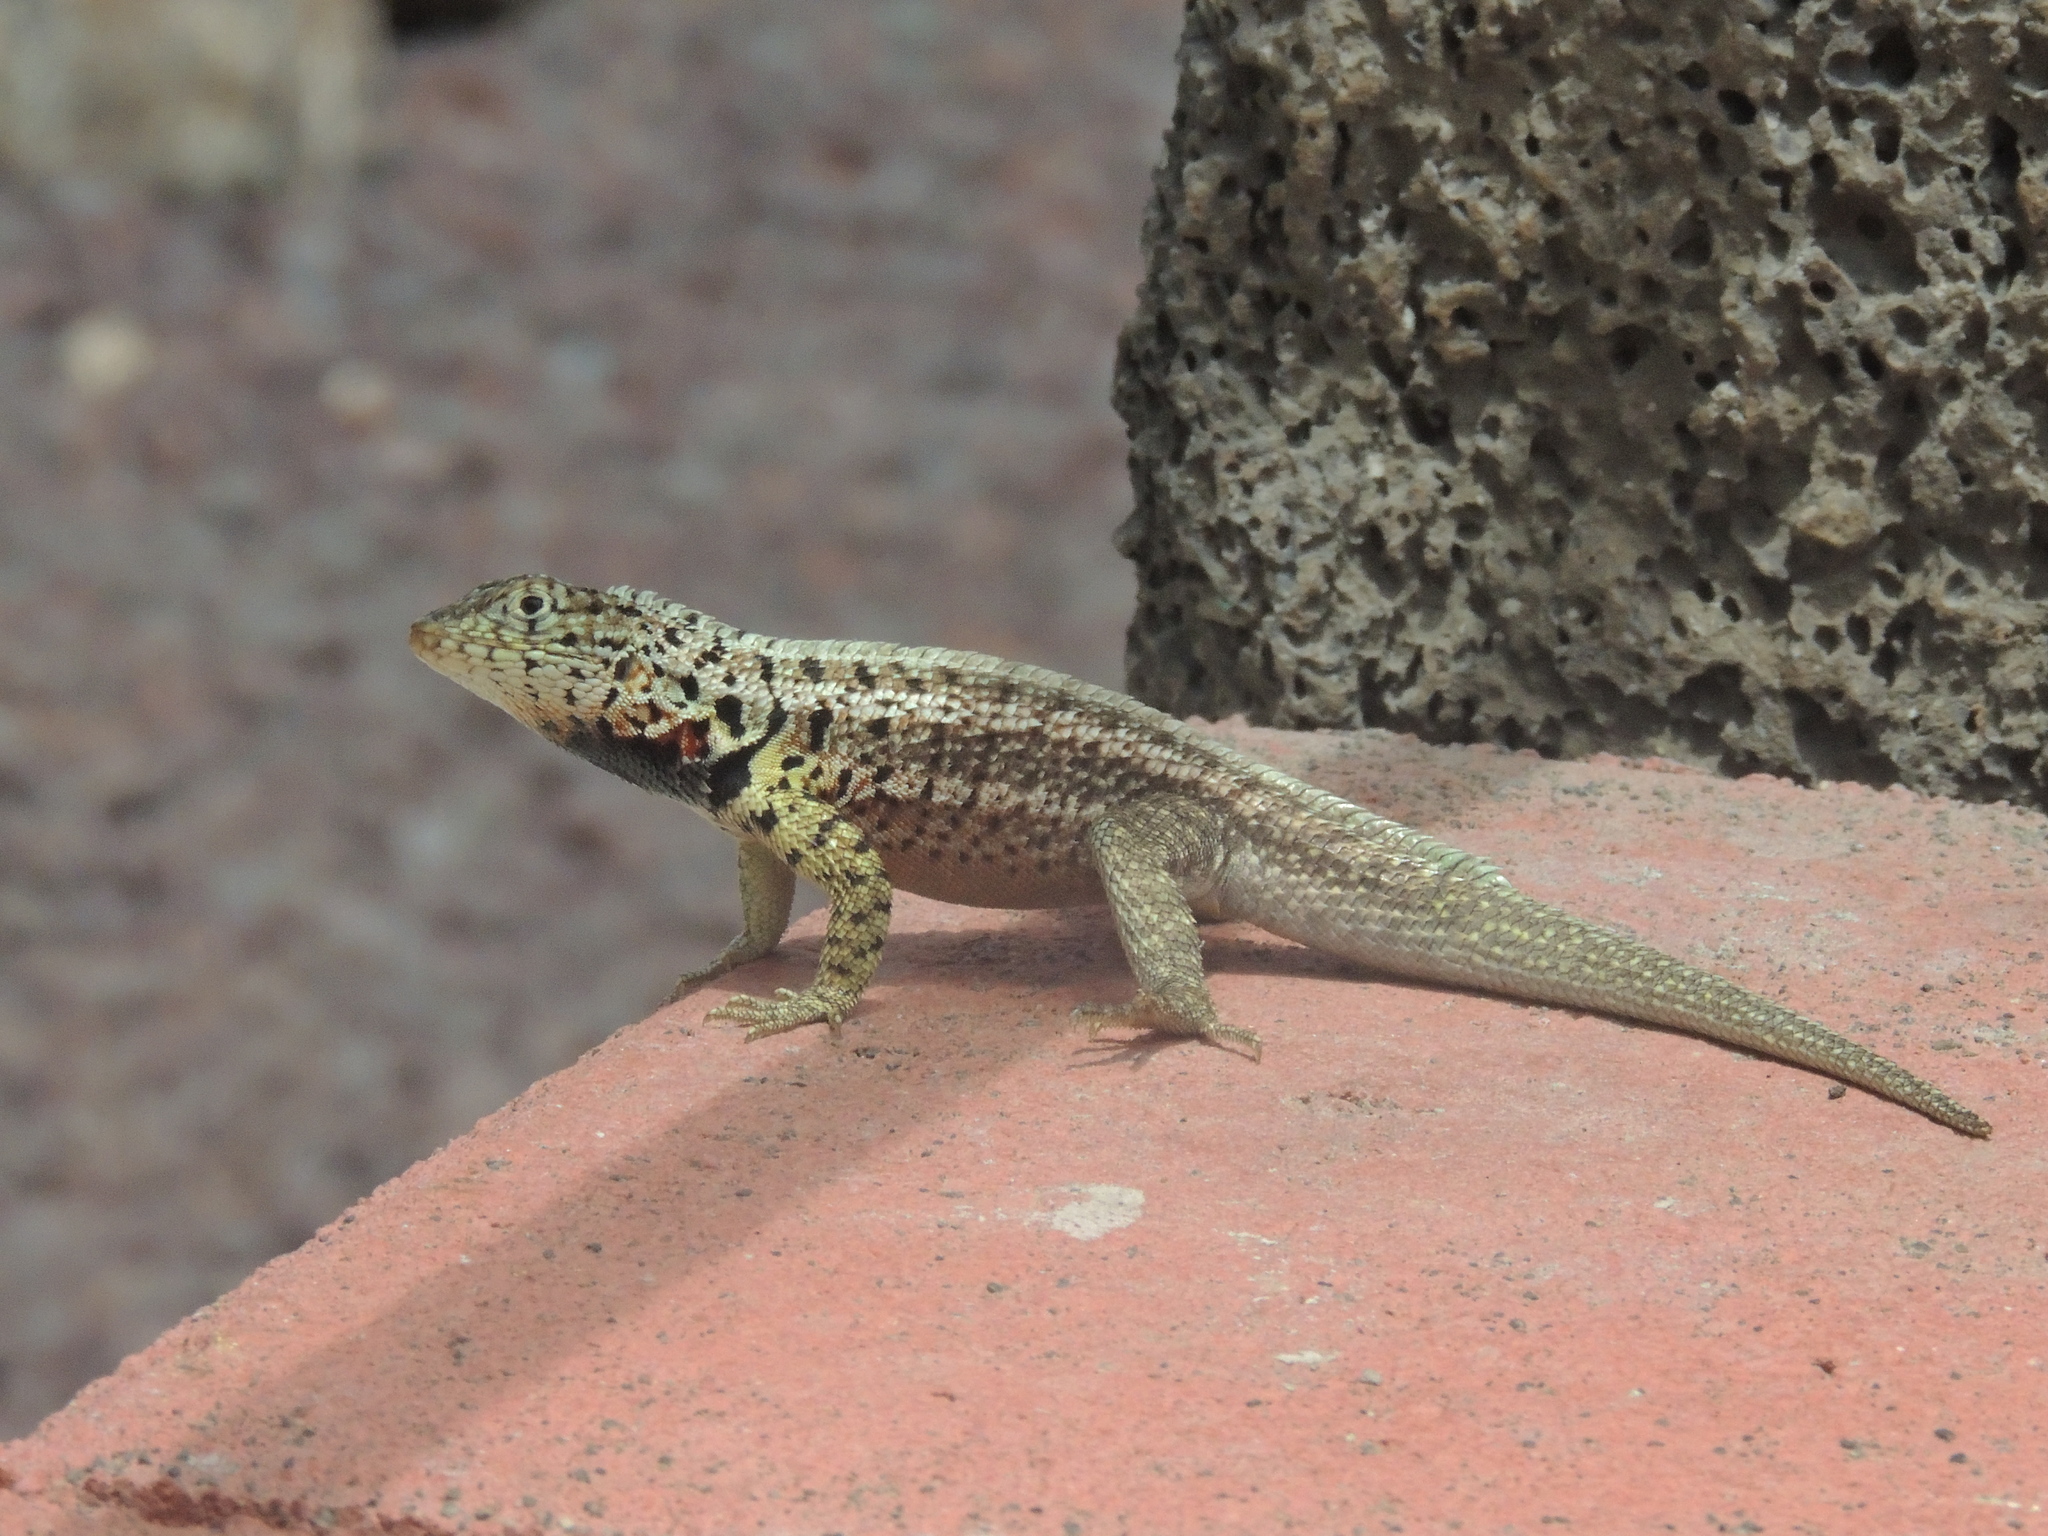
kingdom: Animalia
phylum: Chordata
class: Squamata
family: Tropiduridae
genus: Microlophus
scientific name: Microlophus indefatigabilis
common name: Galapagos lava lizard
